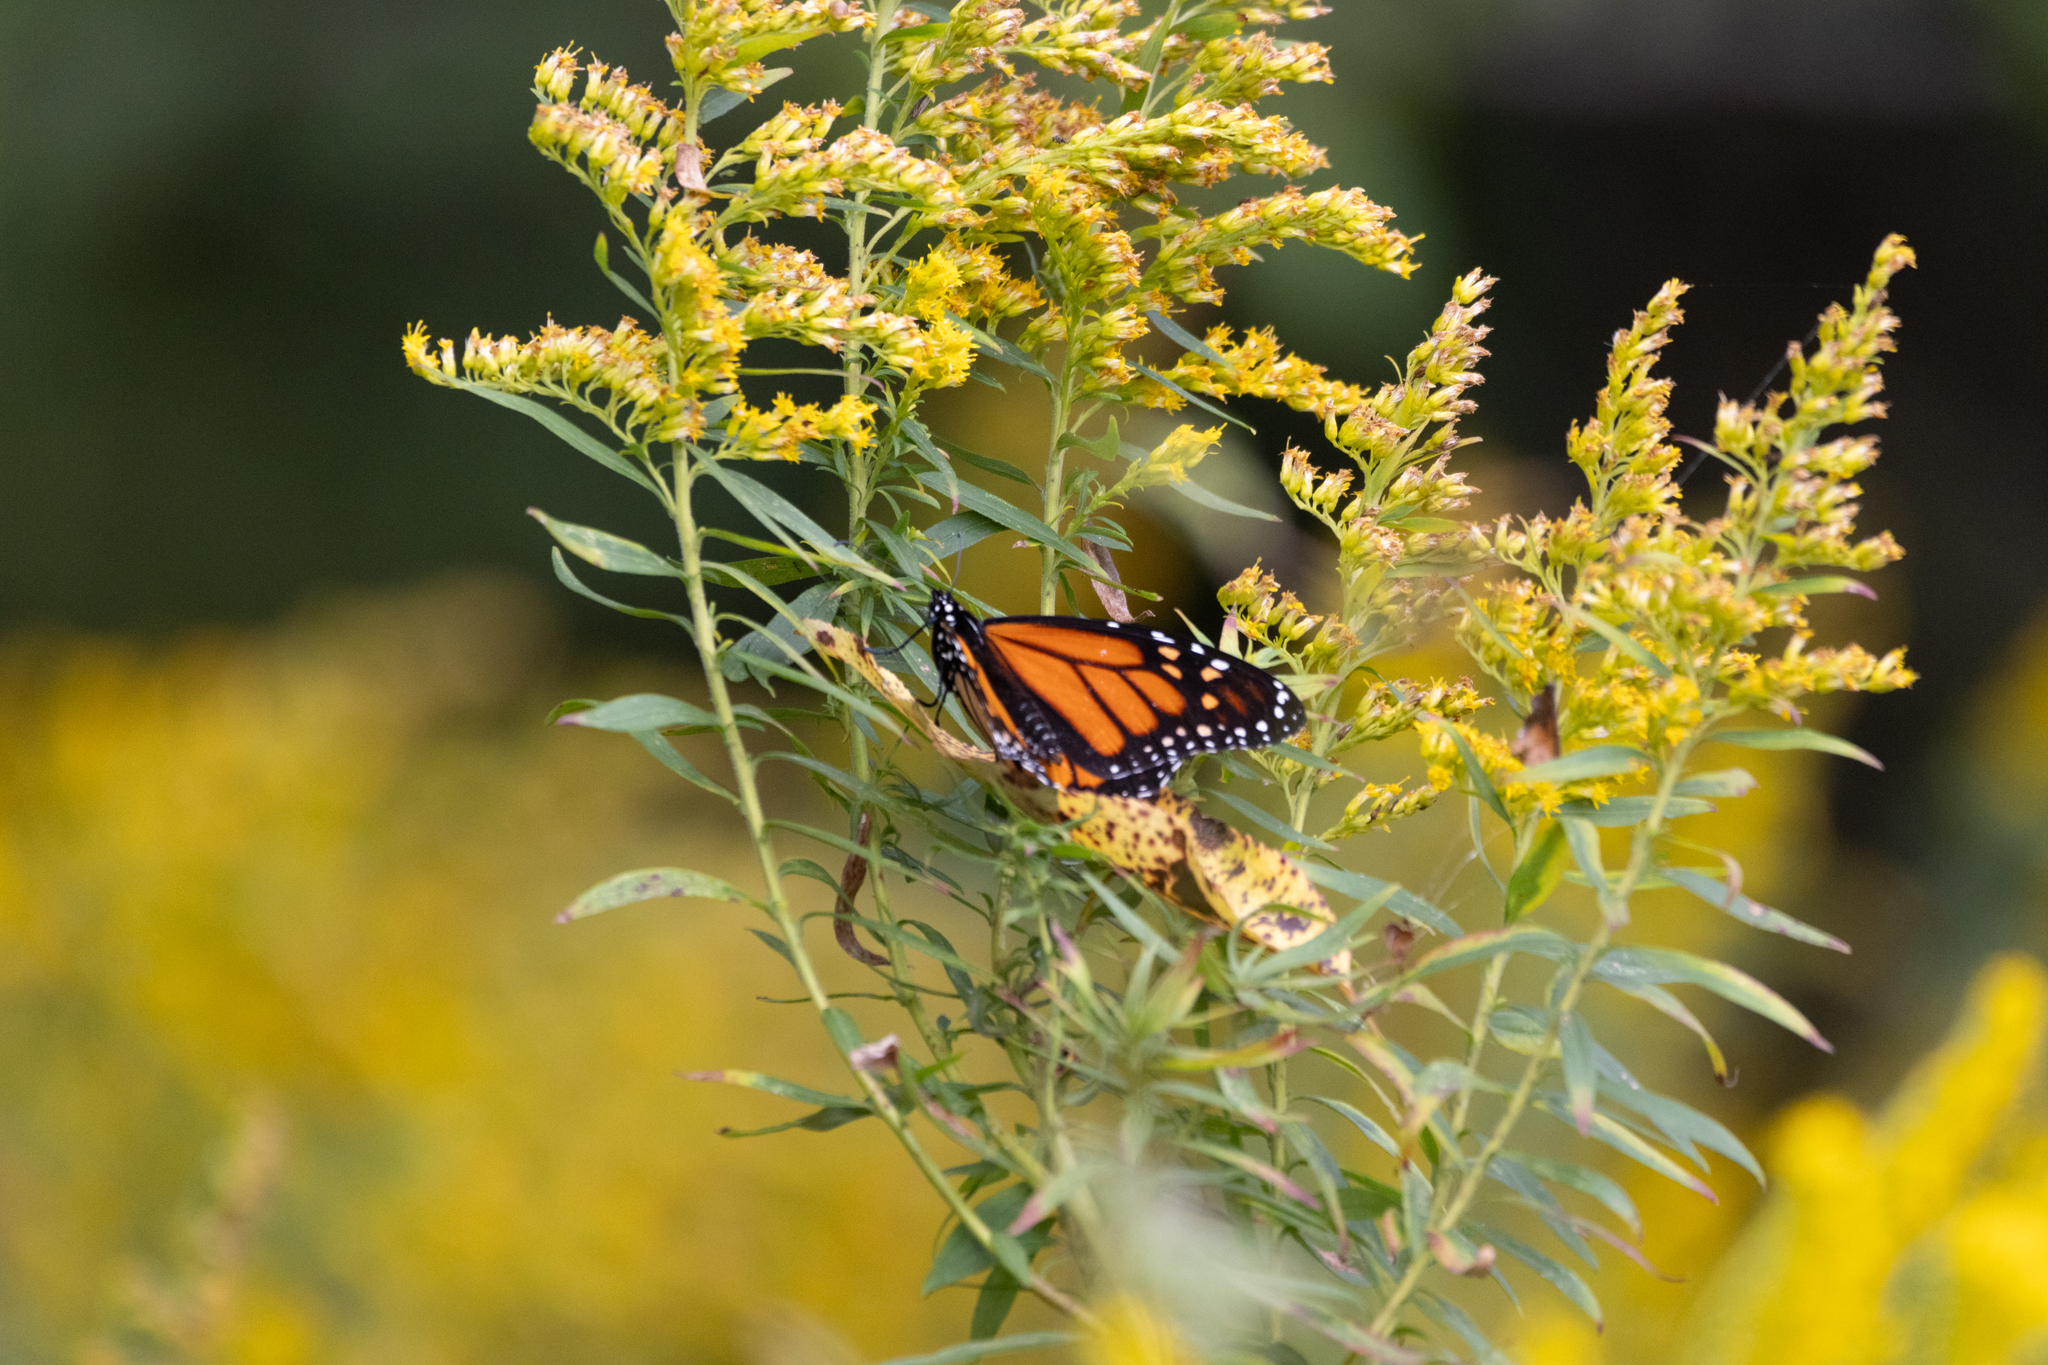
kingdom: Animalia
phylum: Arthropoda
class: Insecta
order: Lepidoptera
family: Nymphalidae
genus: Danaus
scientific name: Danaus plexippus
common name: Monarch
